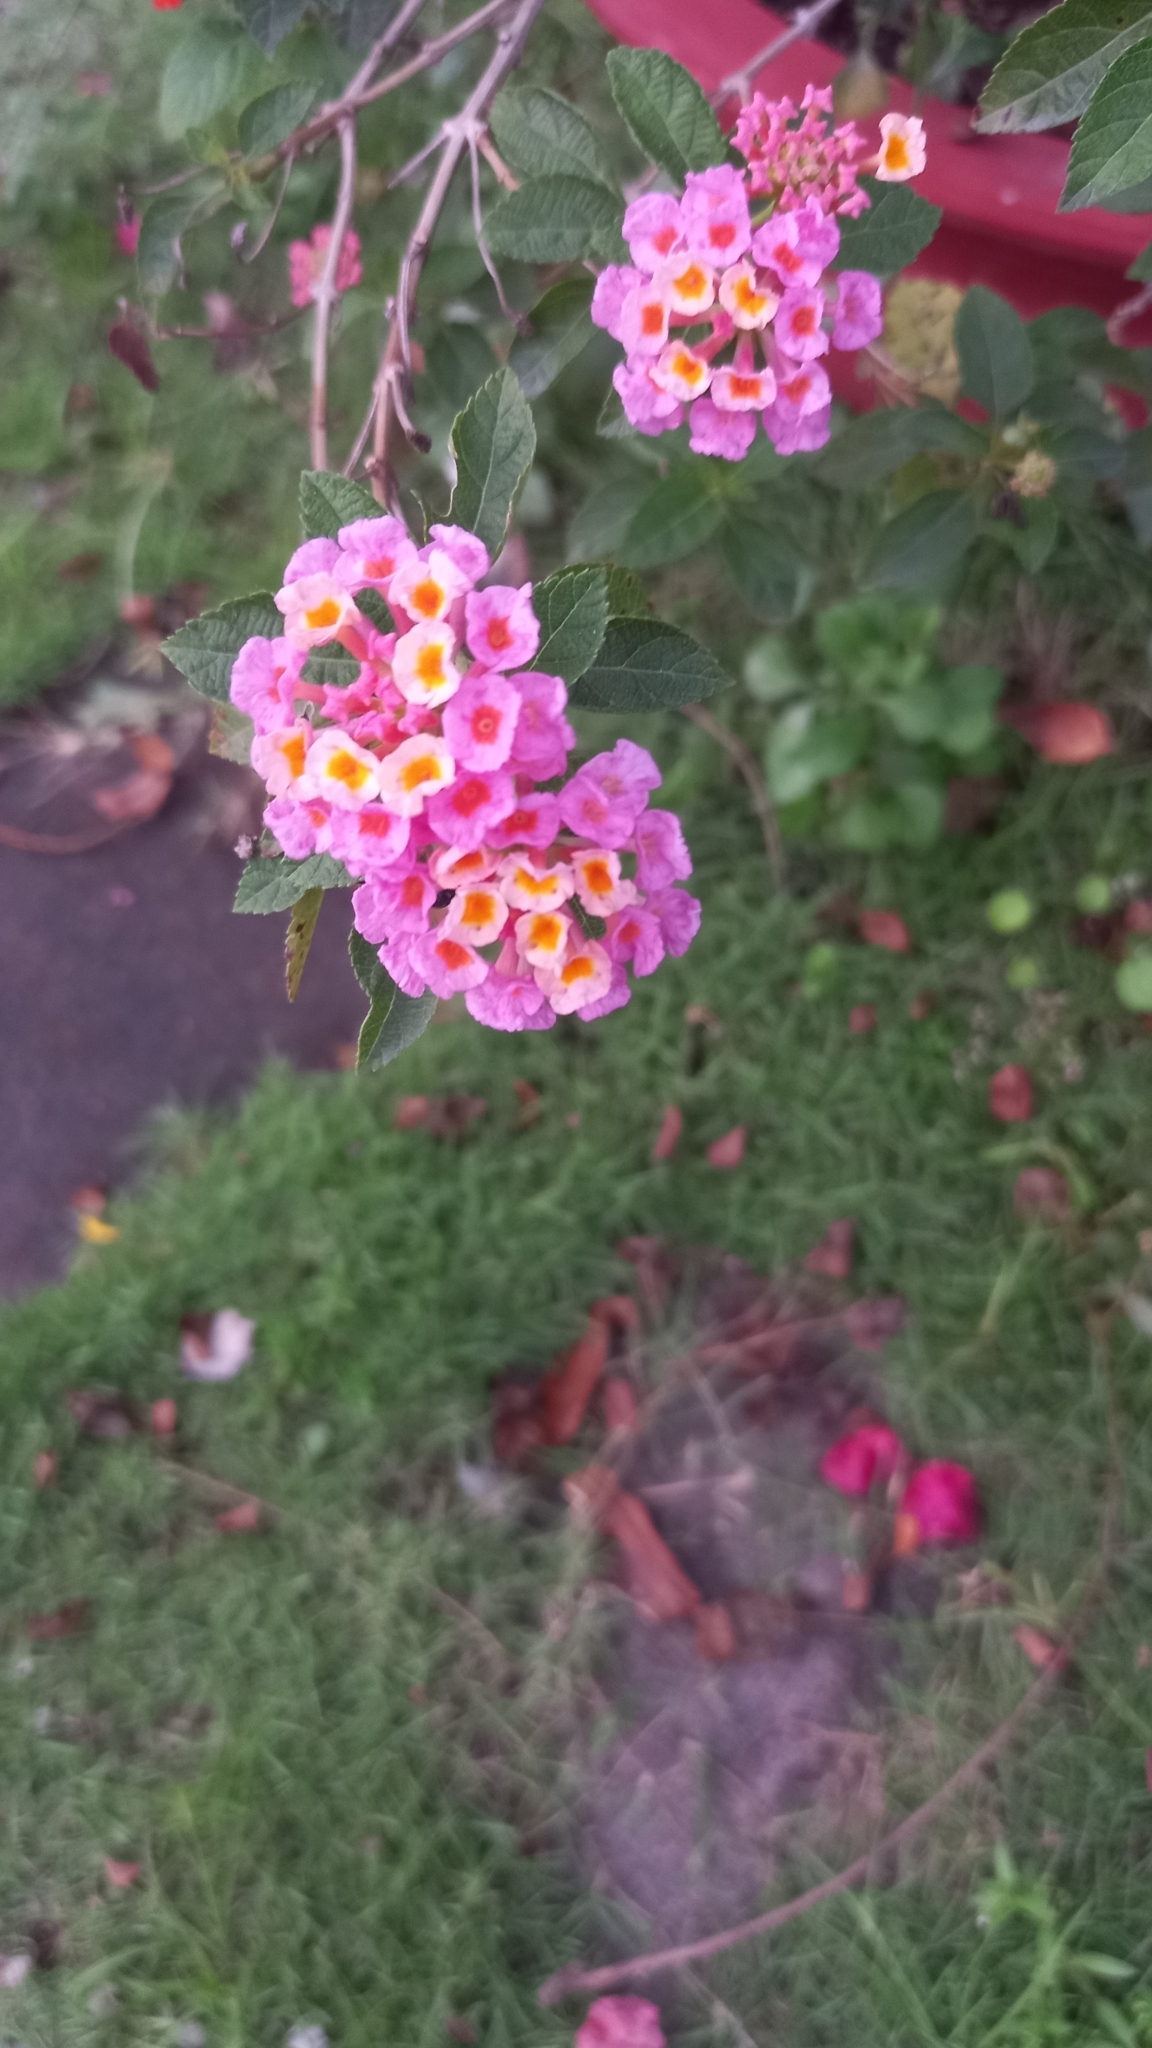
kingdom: Plantae
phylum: Tracheophyta
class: Magnoliopsida
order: Lamiales
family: Verbenaceae
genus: Lantana
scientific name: Lantana camara
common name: Lantana
